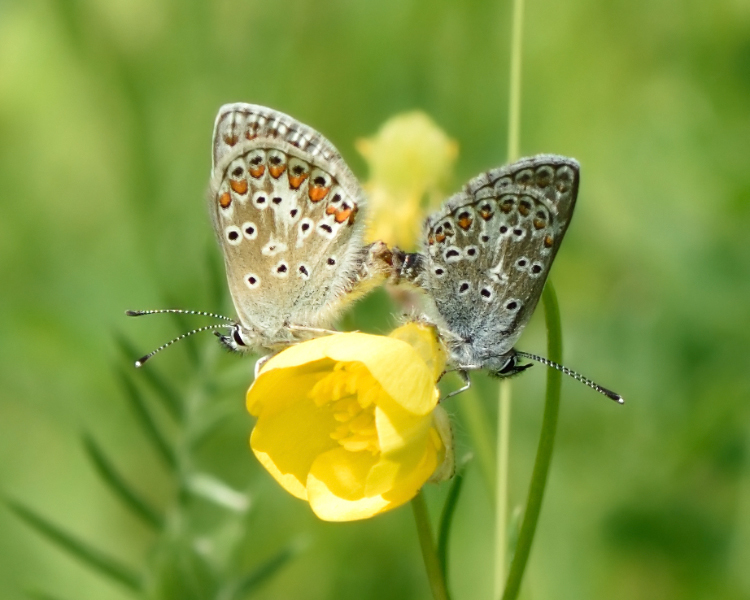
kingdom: Animalia
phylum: Arthropoda
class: Insecta
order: Lepidoptera
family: Lycaenidae
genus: Aricia
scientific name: Aricia artaxerxes
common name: Northern brown argus
